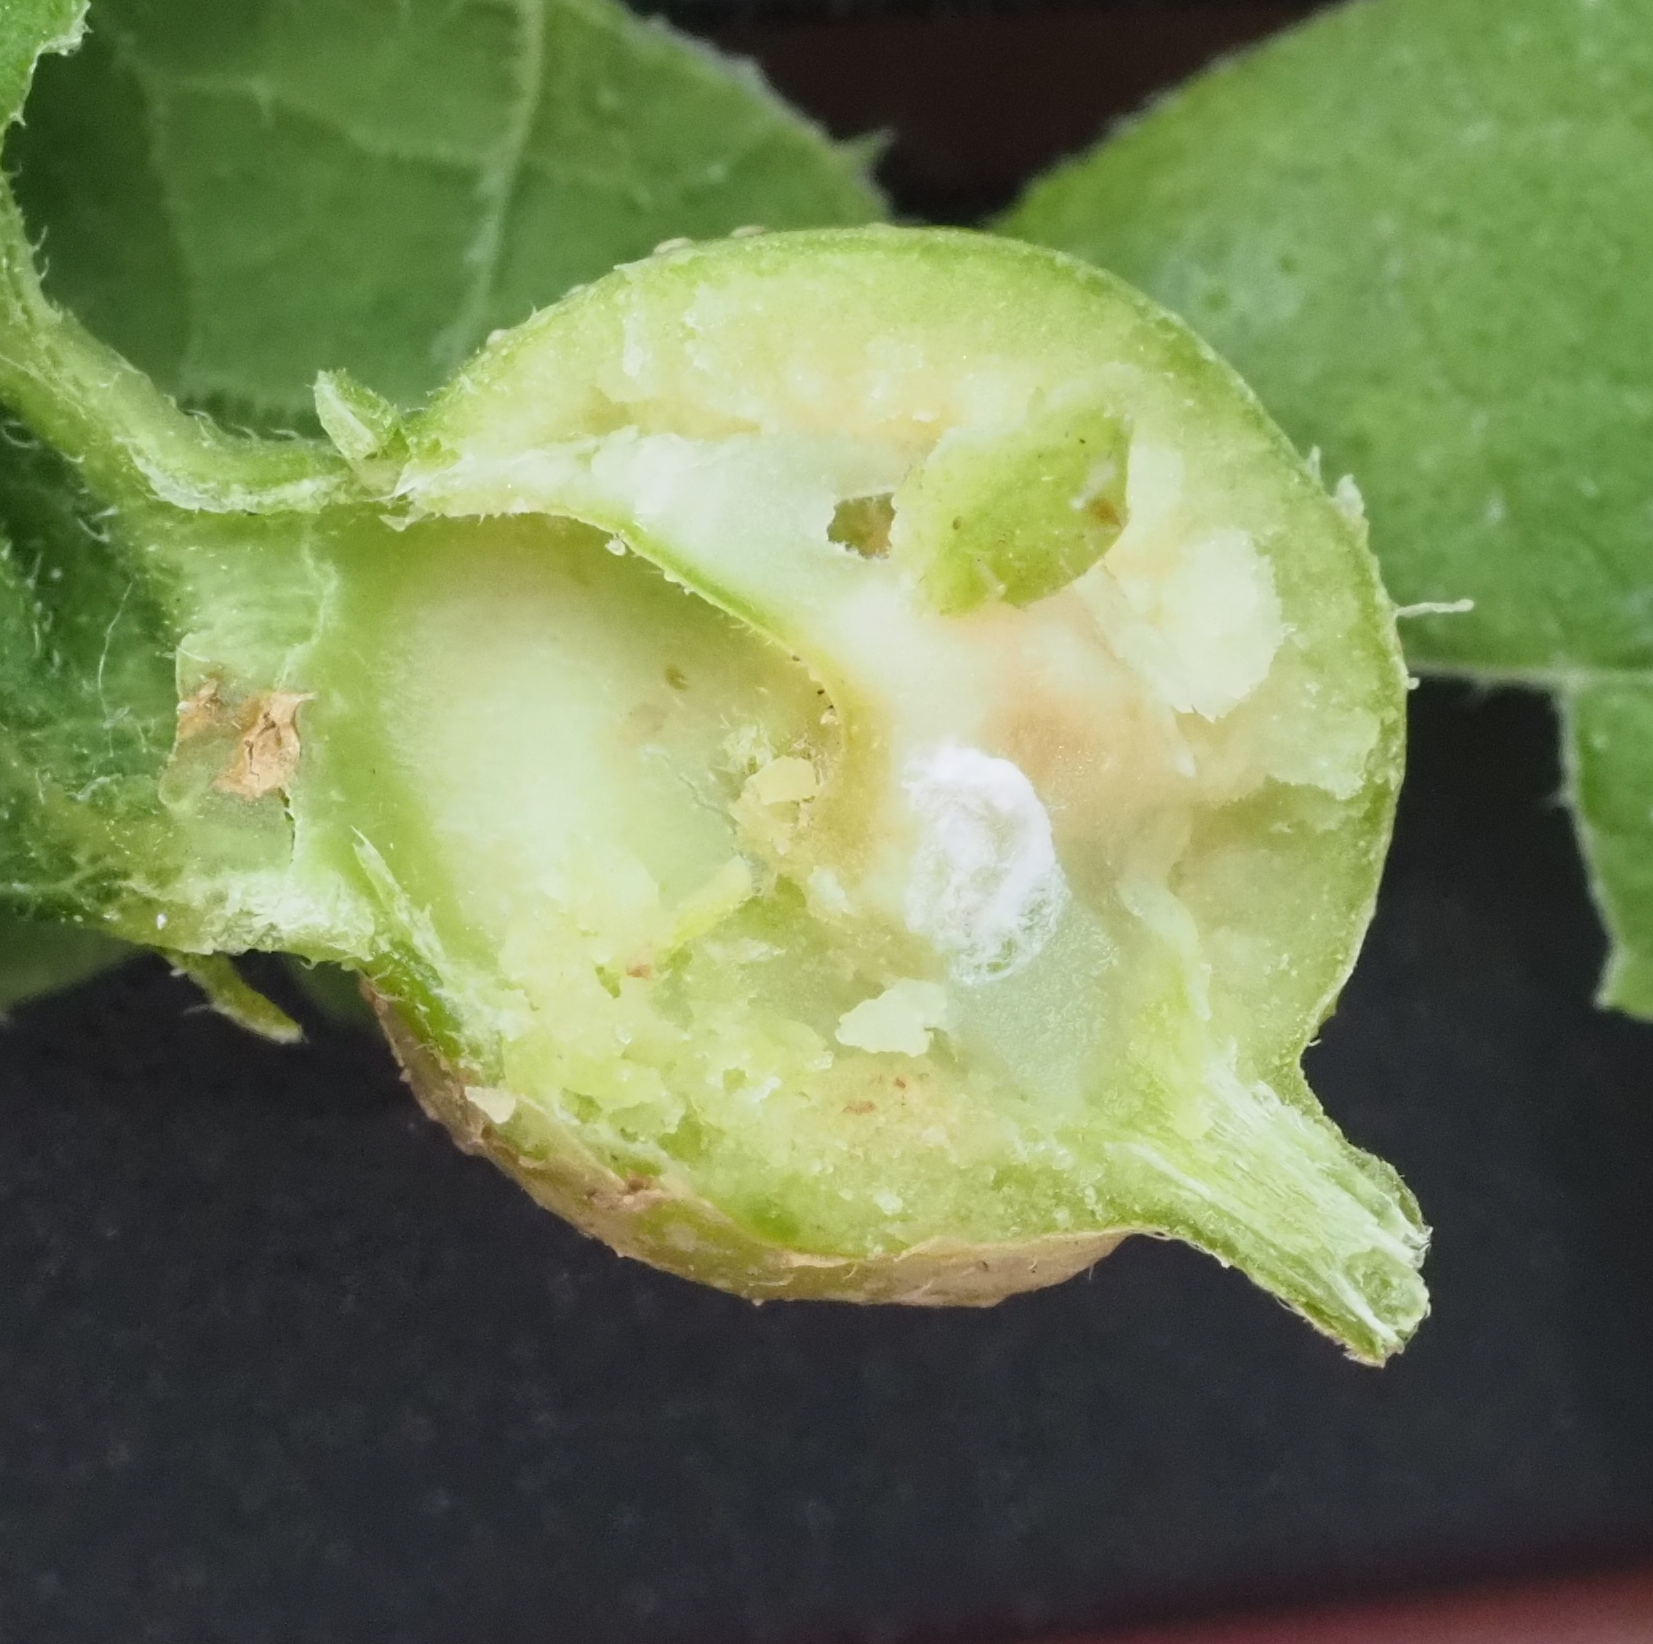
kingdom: Animalia
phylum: Arthropoda
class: Insecta
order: Hemiptera
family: Aphalaridae
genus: Pachypsylla
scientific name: Pachypsylla venusta
